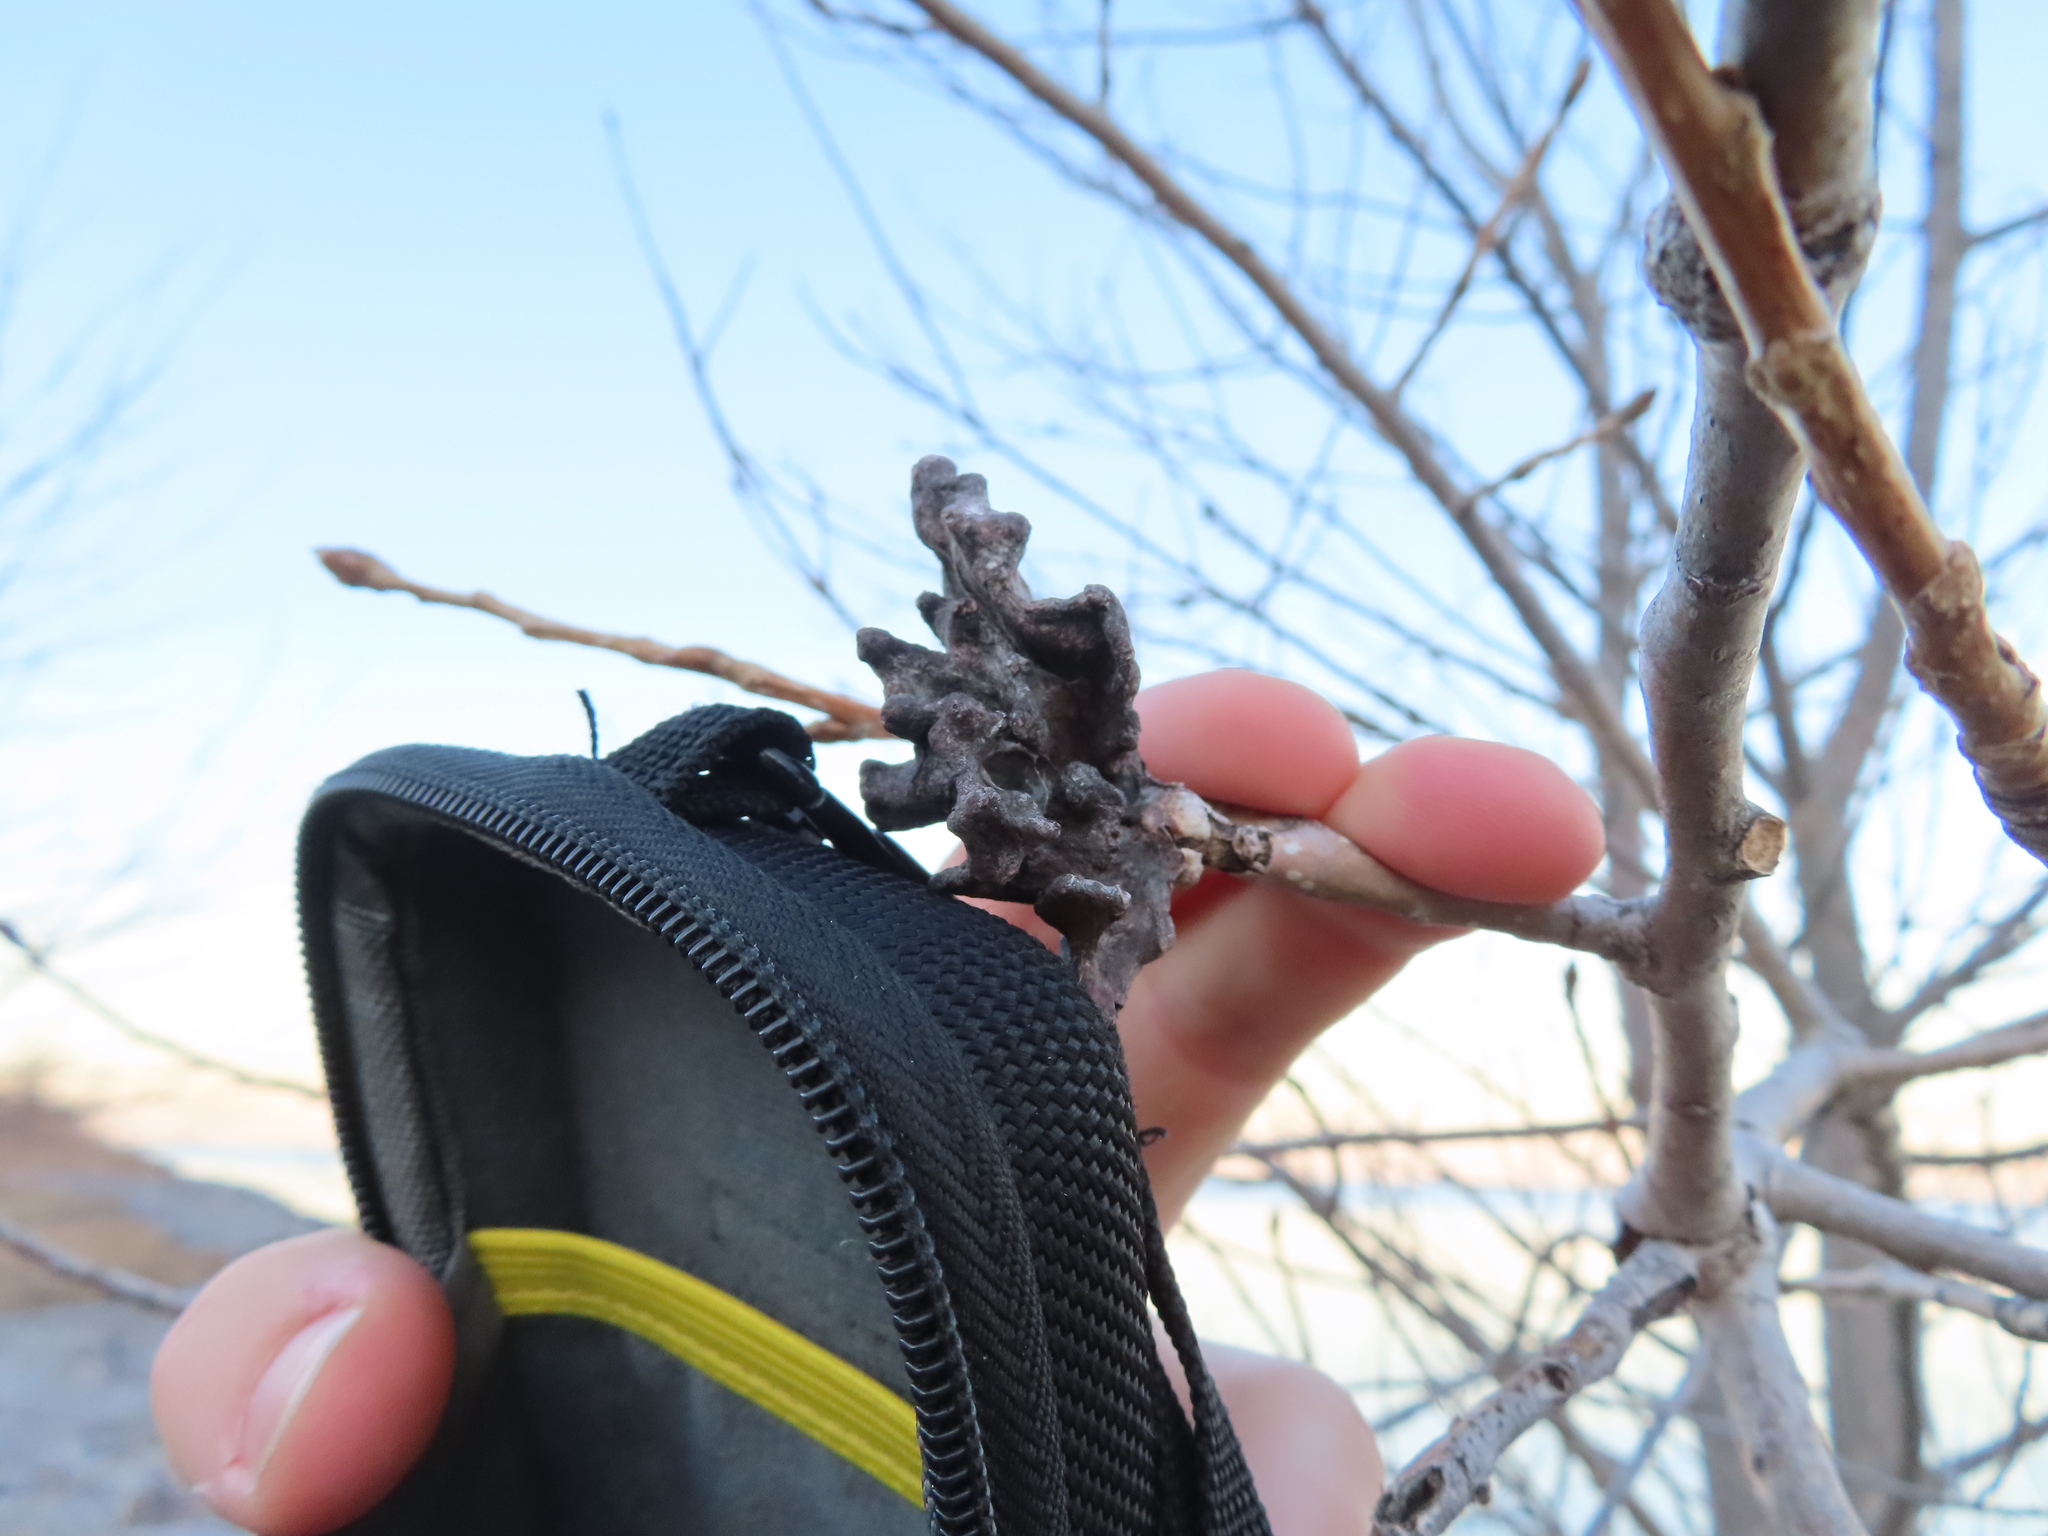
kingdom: Animalia
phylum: Arthropoda
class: Insecta
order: Hemiptera
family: Aphididae
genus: Mordwilkoja
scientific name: Mordwilkoja vagabunda
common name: Poplar vagabond aphid
